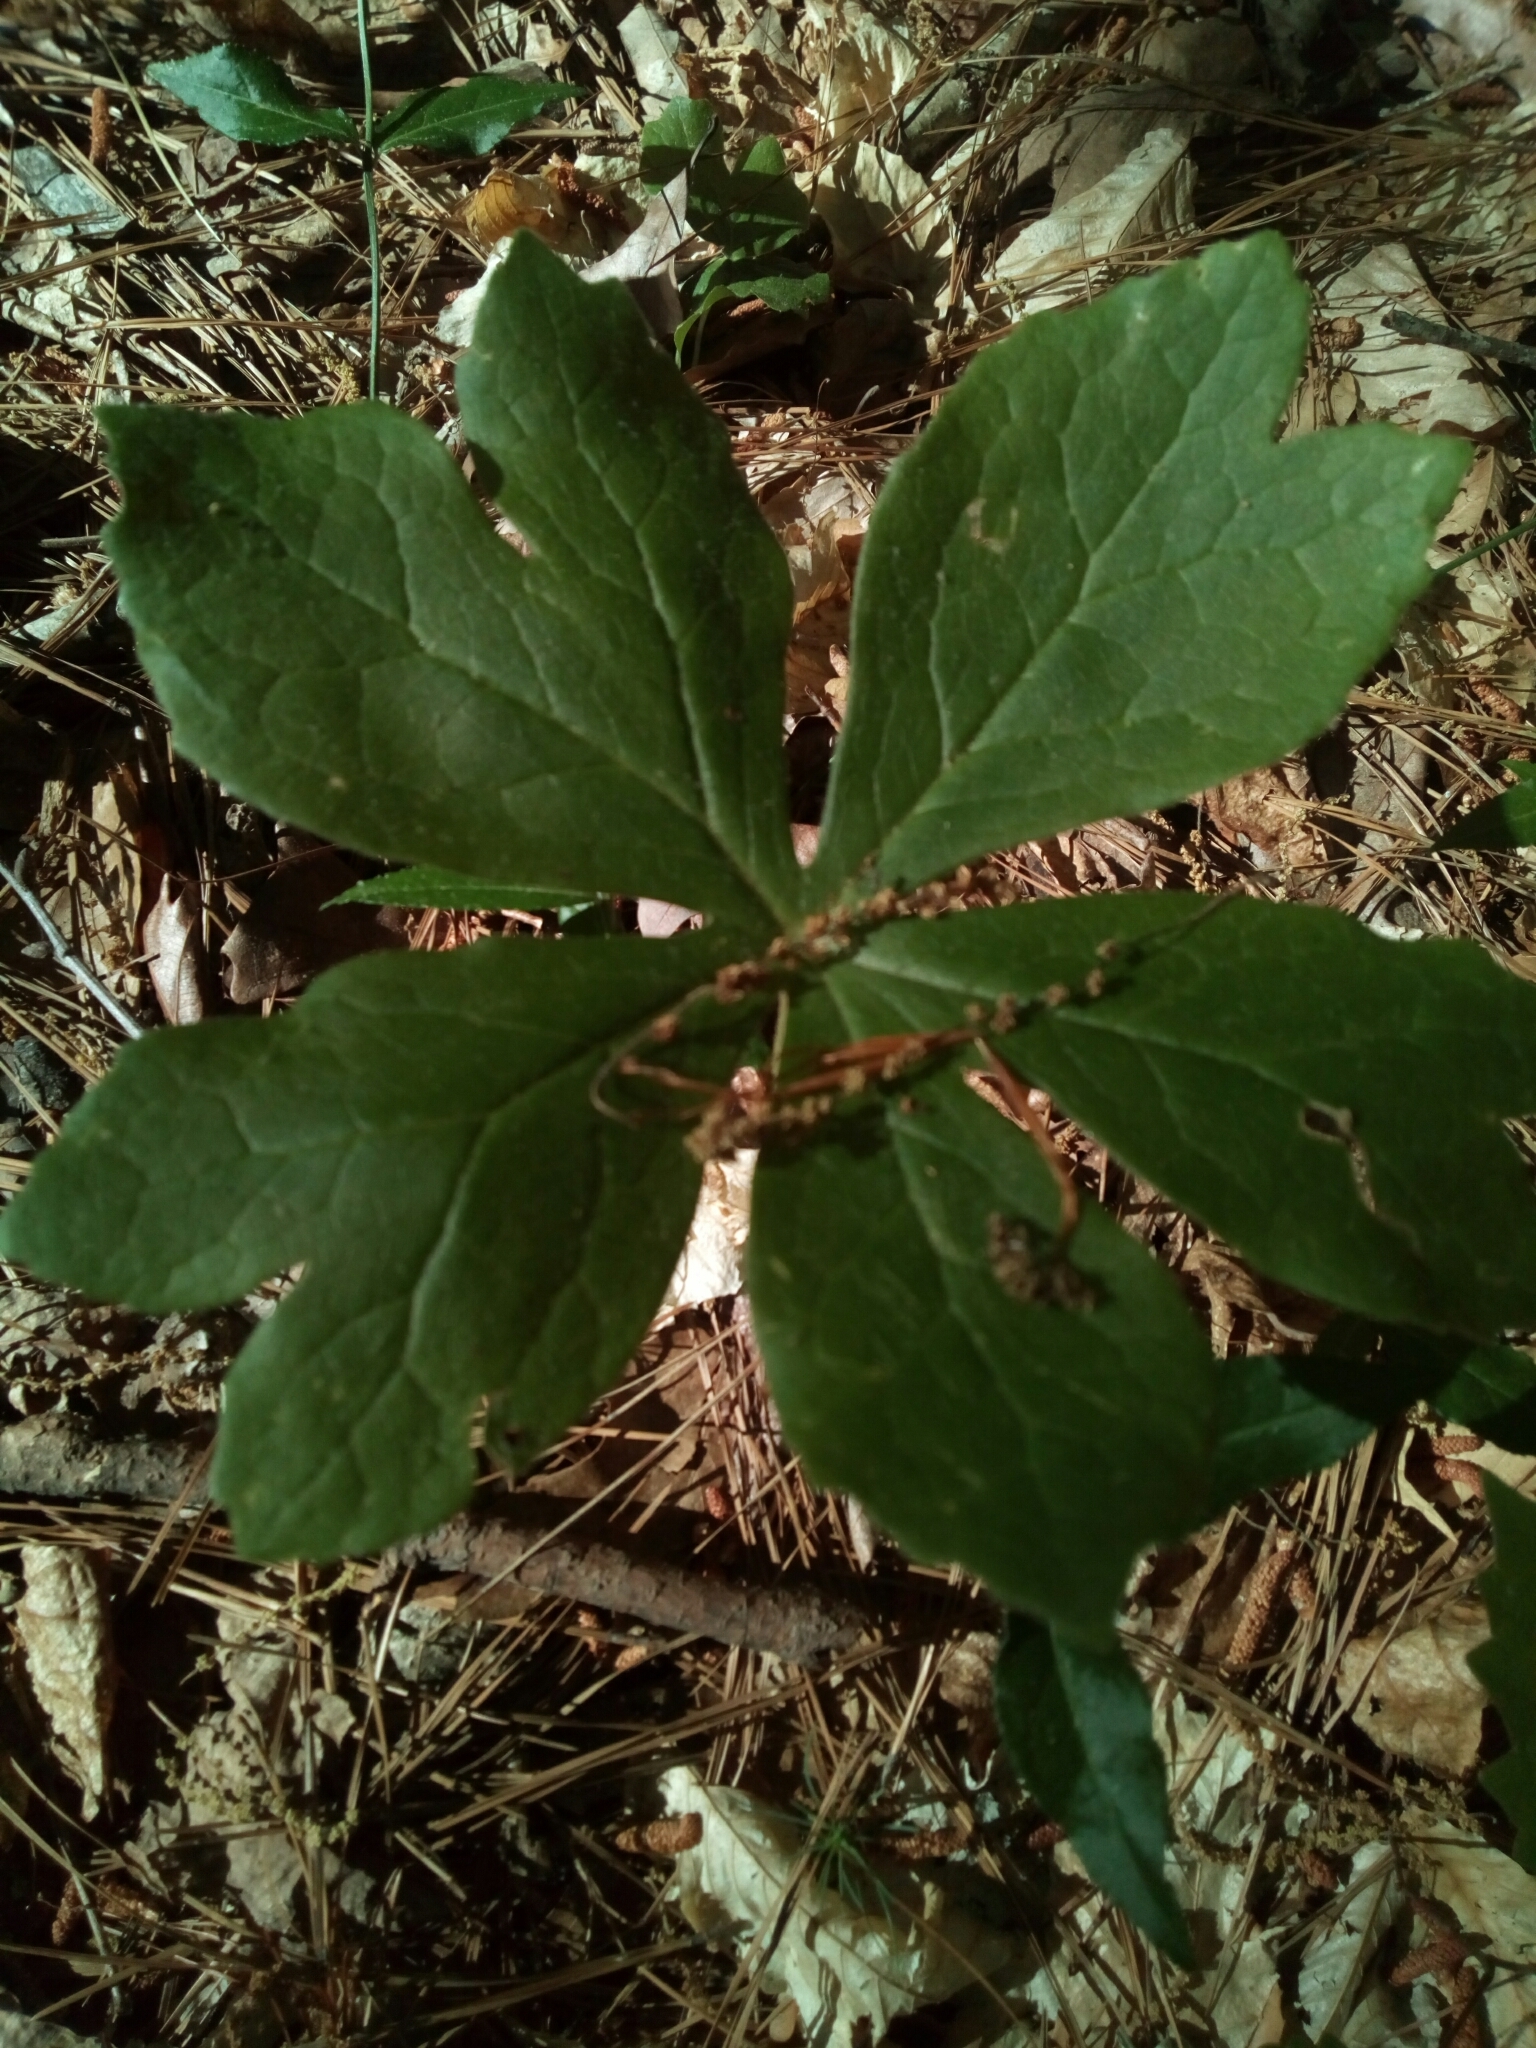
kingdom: Plantae
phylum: Tracheophyta
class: Magnoliopsida
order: Ranunculales
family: Berberidaceae
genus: Podophyllum
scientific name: Podophyllum peltatum
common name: Wild mandrake
